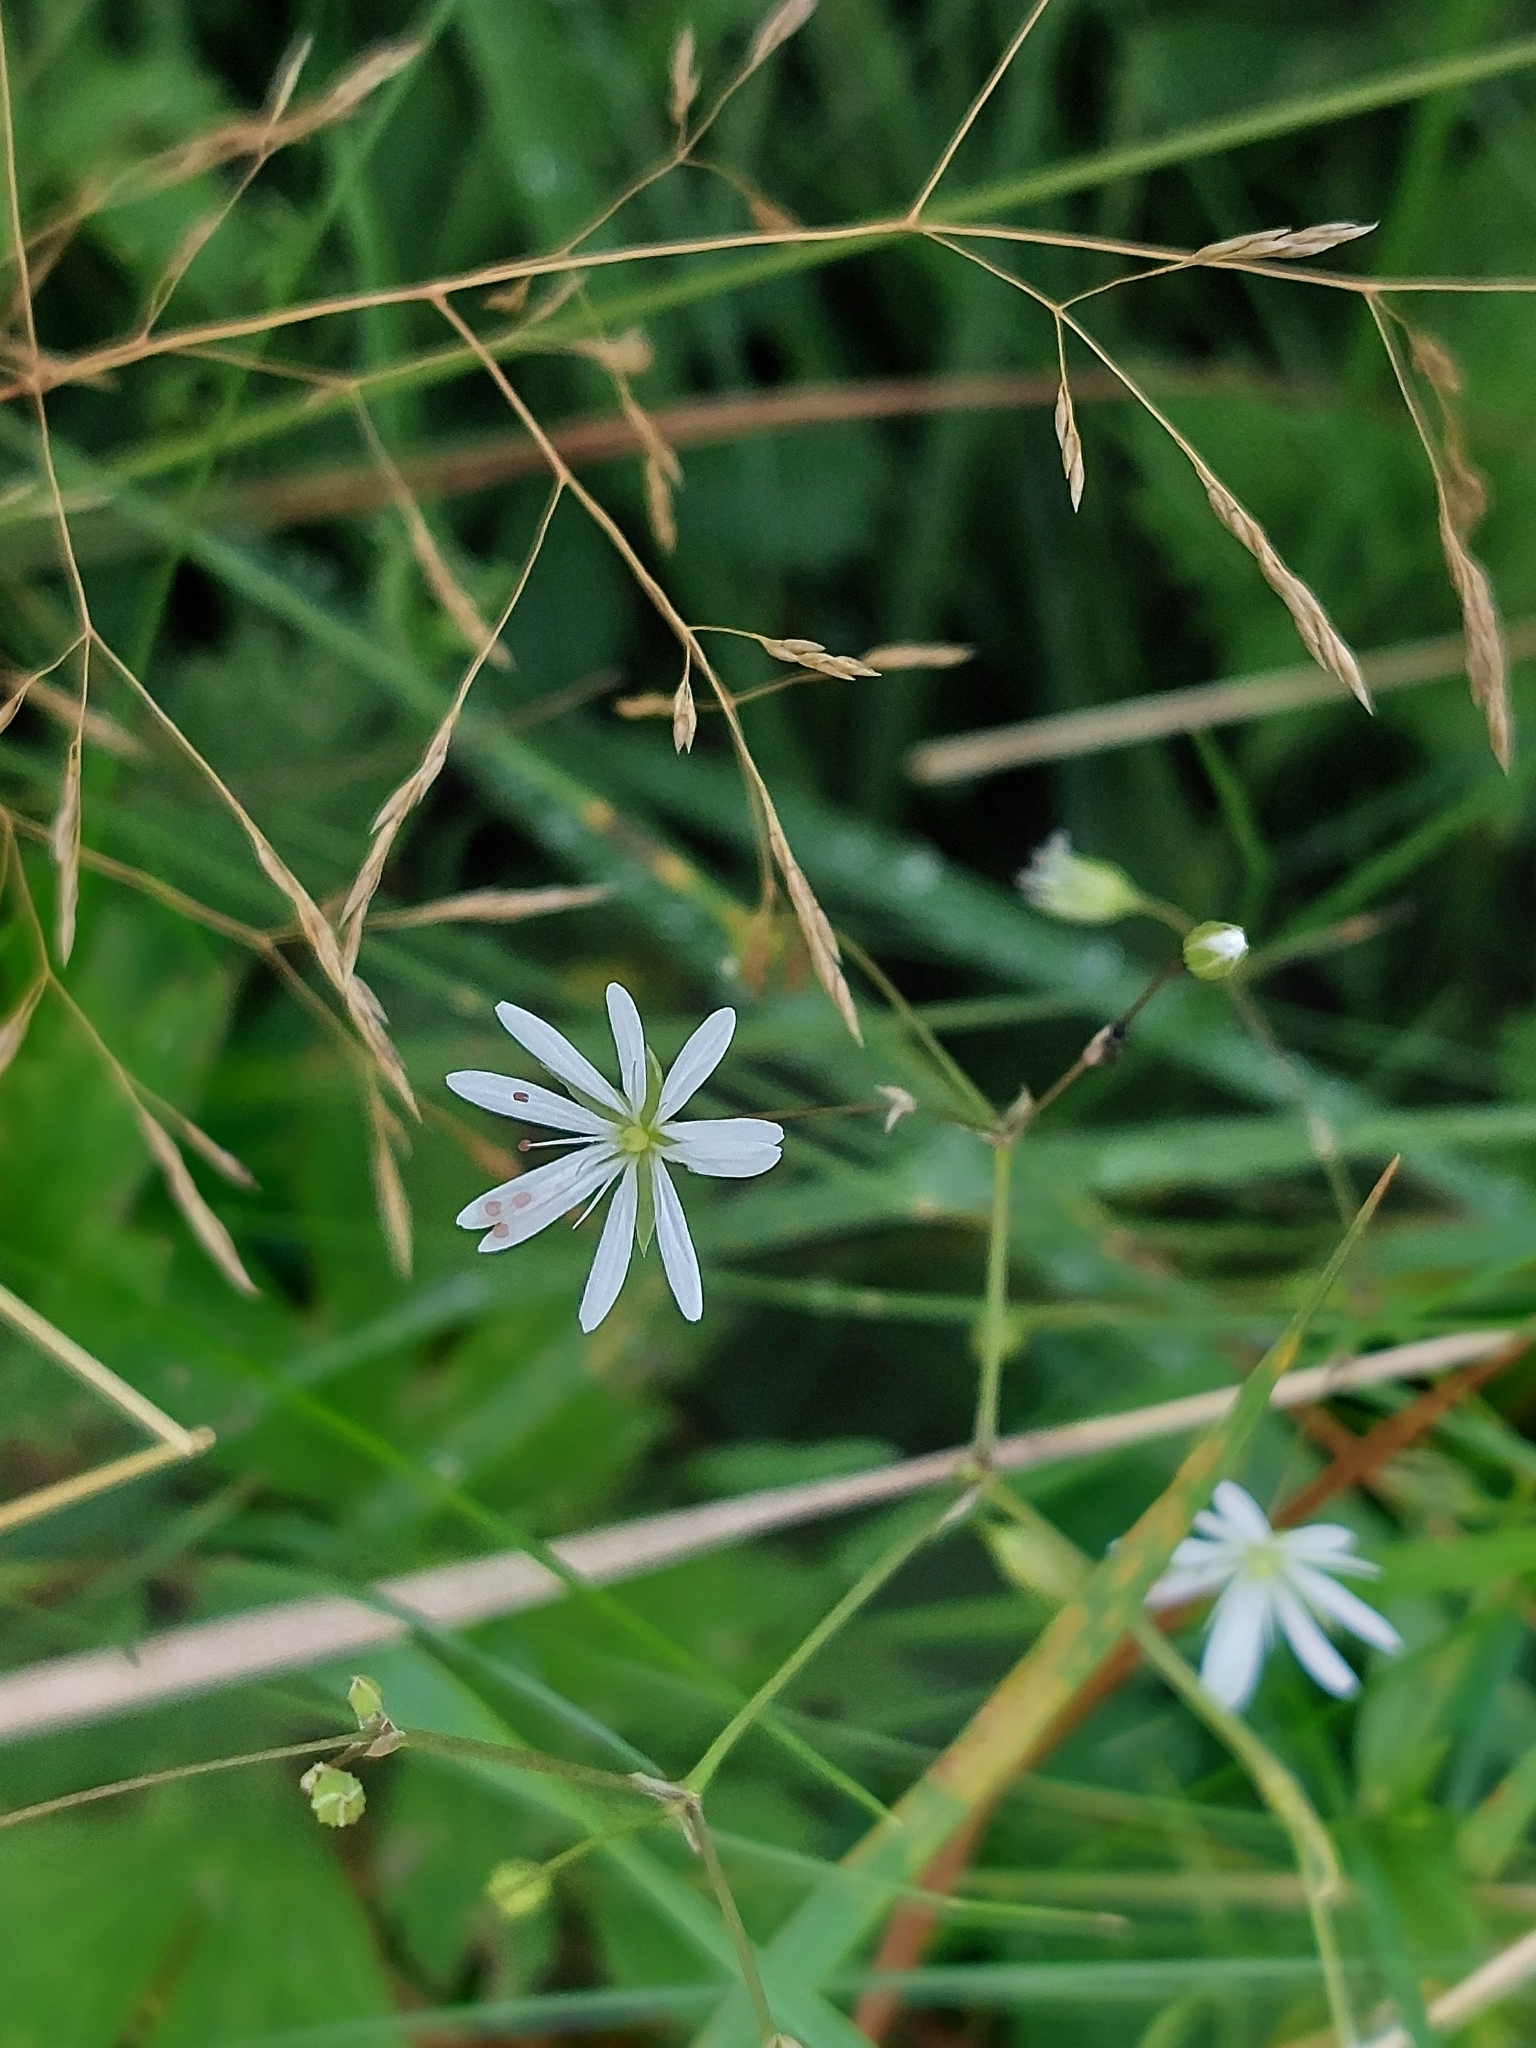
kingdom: Plantae
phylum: Tracheophyta
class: Magnoliopsida
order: Caryophyllales
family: Caryophyllaceae
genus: Stellaria
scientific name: Stellaria graminea
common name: Grass-like starwort
